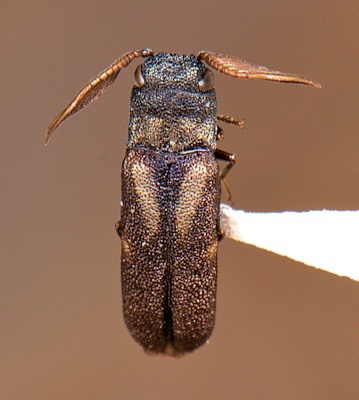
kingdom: Animalia
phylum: Arthropoda
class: Insecta
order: Coleoptera
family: Buprestidae
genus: Xenorhipis
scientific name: Xenorhipis brendeli
